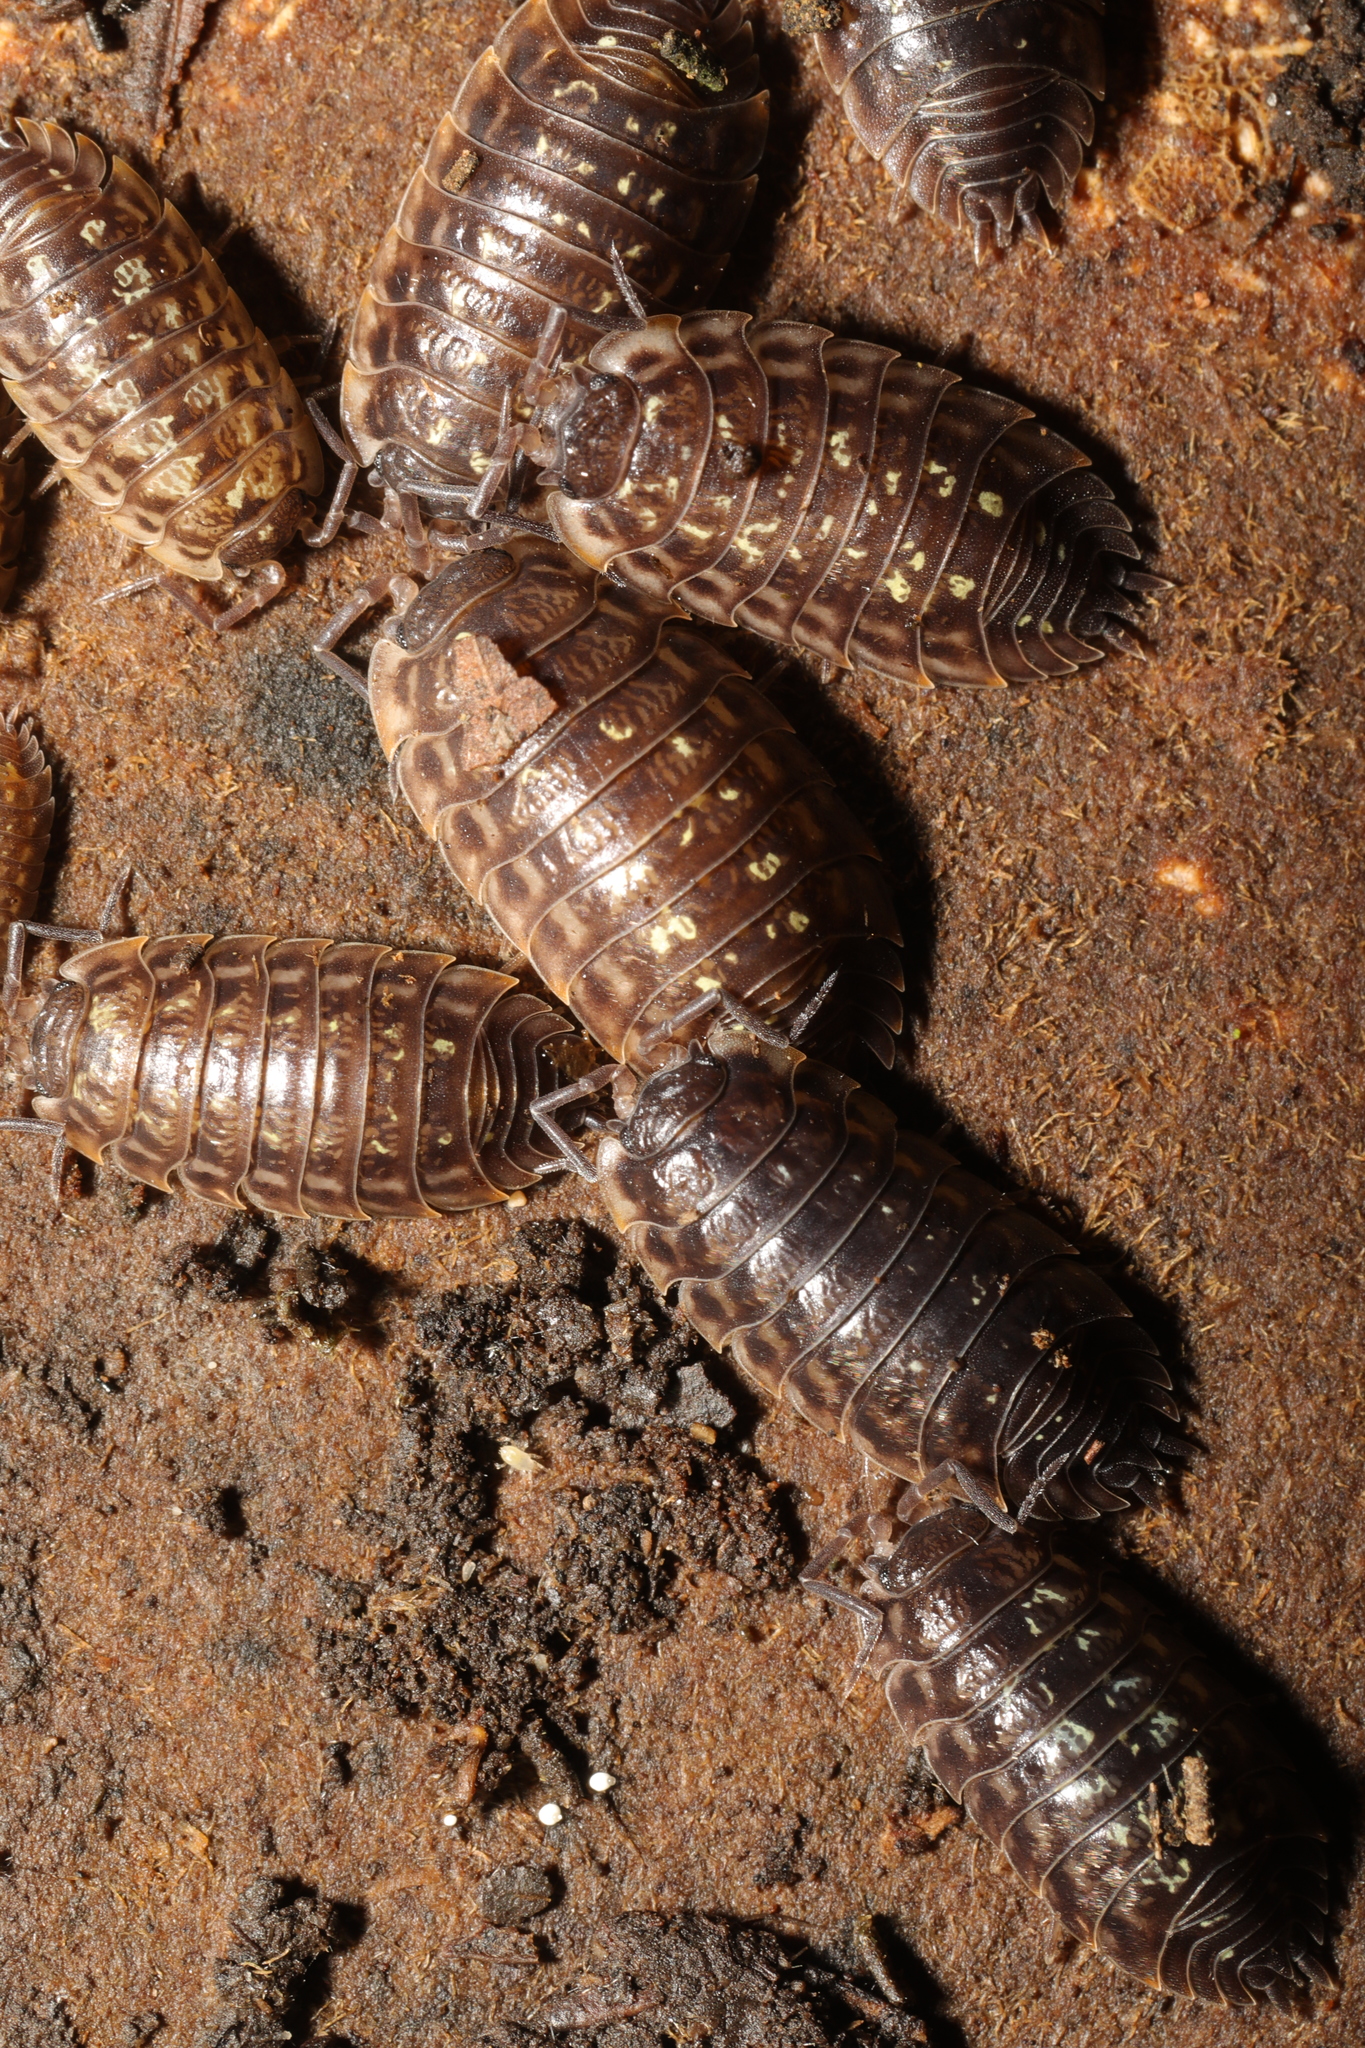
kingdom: Animalia
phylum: Arthropoda
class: Malacostraca
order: Isopoda
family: Oniscidae
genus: Oniscus
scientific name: Oniscus asellus
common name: Common shiny woodlouse
